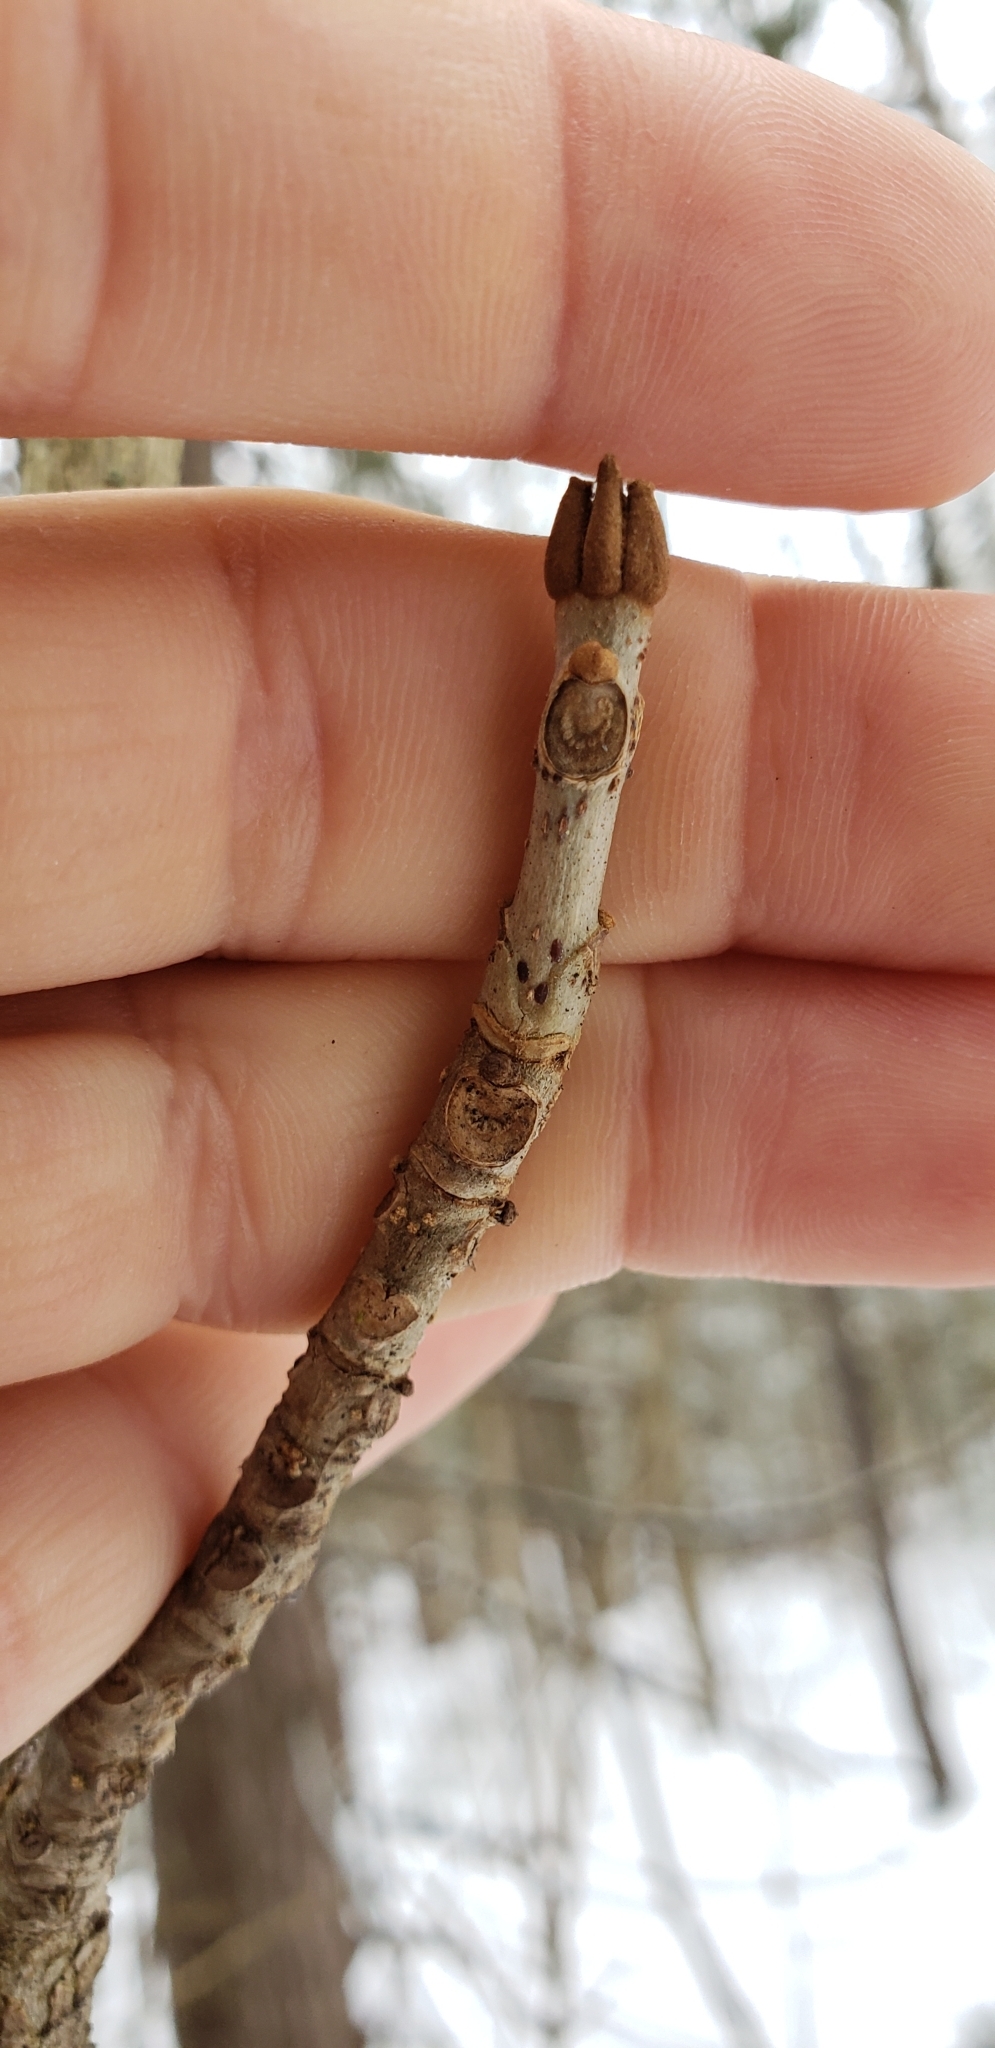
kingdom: Plantae
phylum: Tracheophyta
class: Magnoliopsida
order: Lamiales
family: Oleaceae
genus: Fraxinus
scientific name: Fraxinus nigra
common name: Black ash
